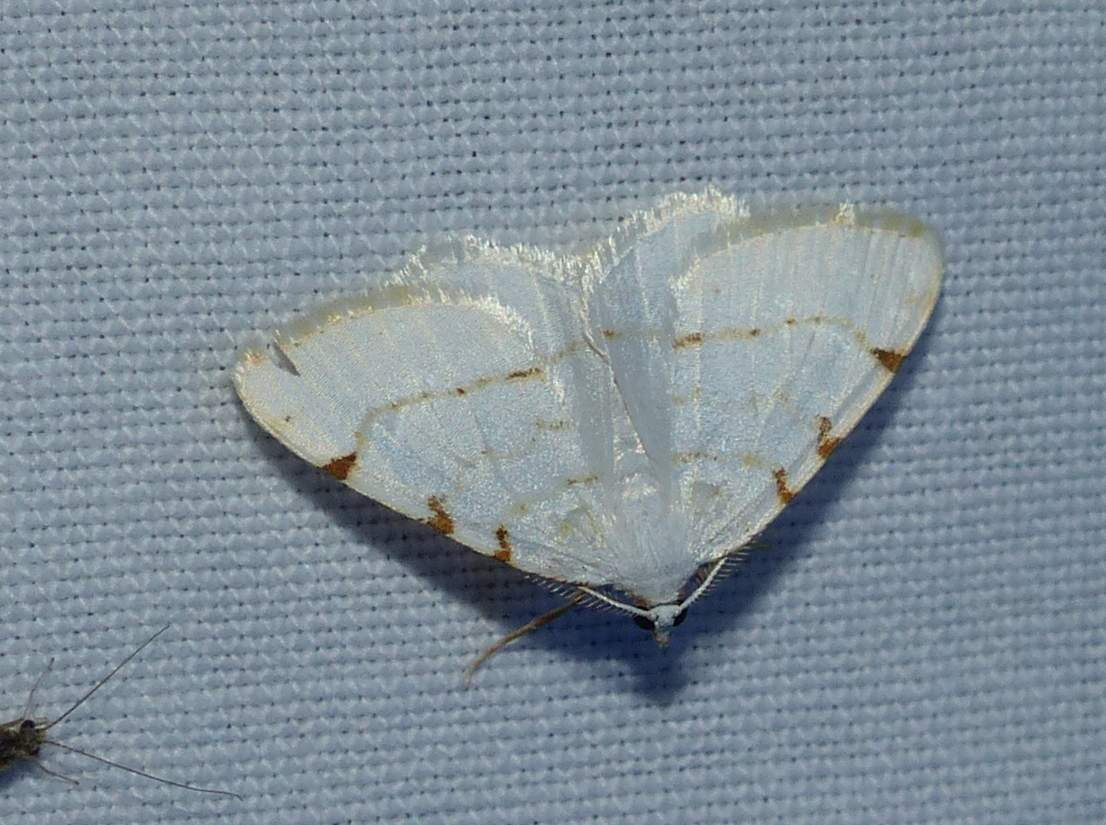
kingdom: Animalia
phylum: Arthropoda
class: Insecta
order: Lepidoptera
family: Geometridae
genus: Macaria
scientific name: Macaria pustularia
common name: Lesser maple spanworm moth
